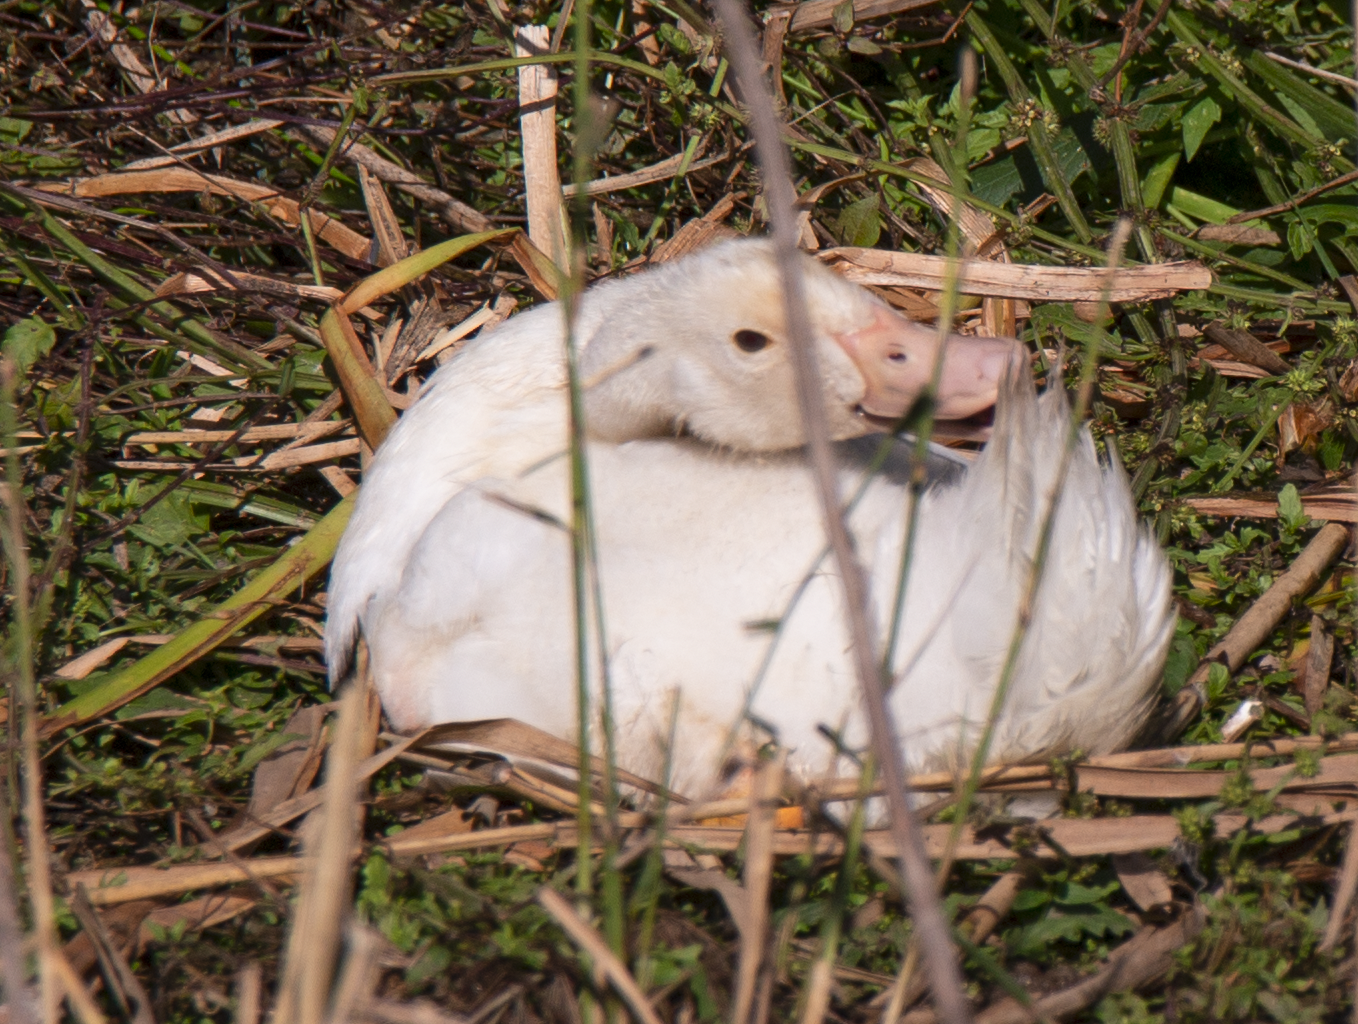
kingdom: Animalia
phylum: Chordata
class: Aves
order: Anseriformes
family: Anatidae
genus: Anas
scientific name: Anas platyrhynchos
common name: Mallard
